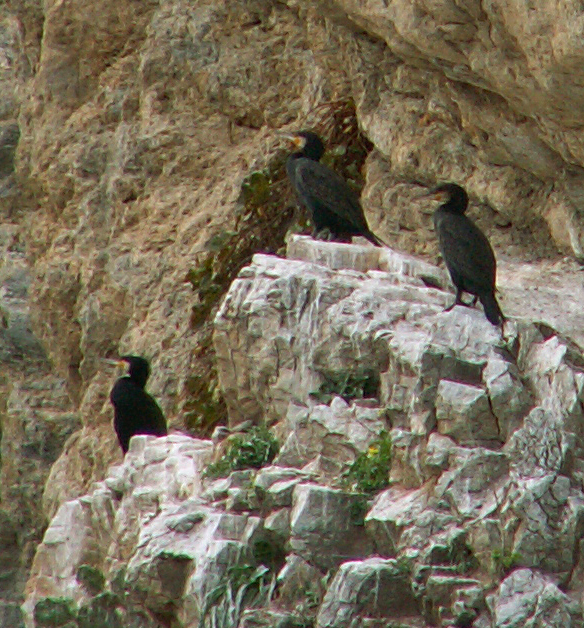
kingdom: Animalia
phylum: Chordata
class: Aves
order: Suliformes
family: Phalacrocoracidae
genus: Phalacrocorax
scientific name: Phalacrocorax carbo
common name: Great cormorant
